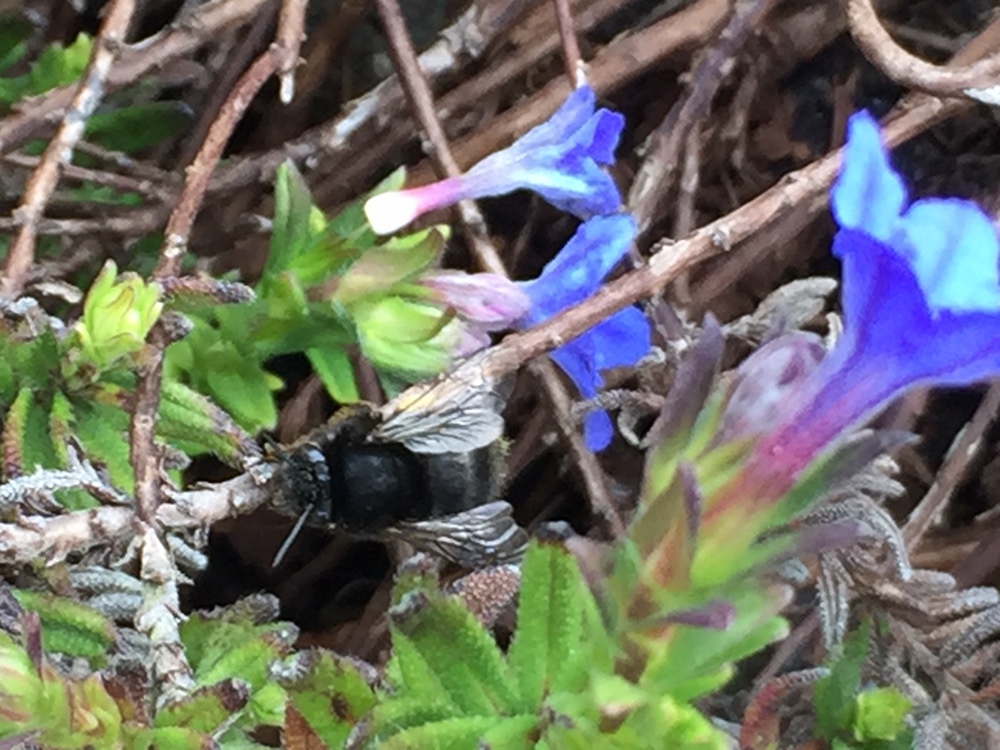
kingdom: Animalia
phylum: Arthropoda
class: Insecta
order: Hymenoptera
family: Apidae
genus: Anthophora
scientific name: Anthophora plumipes
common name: Hairy-footed flower bee
